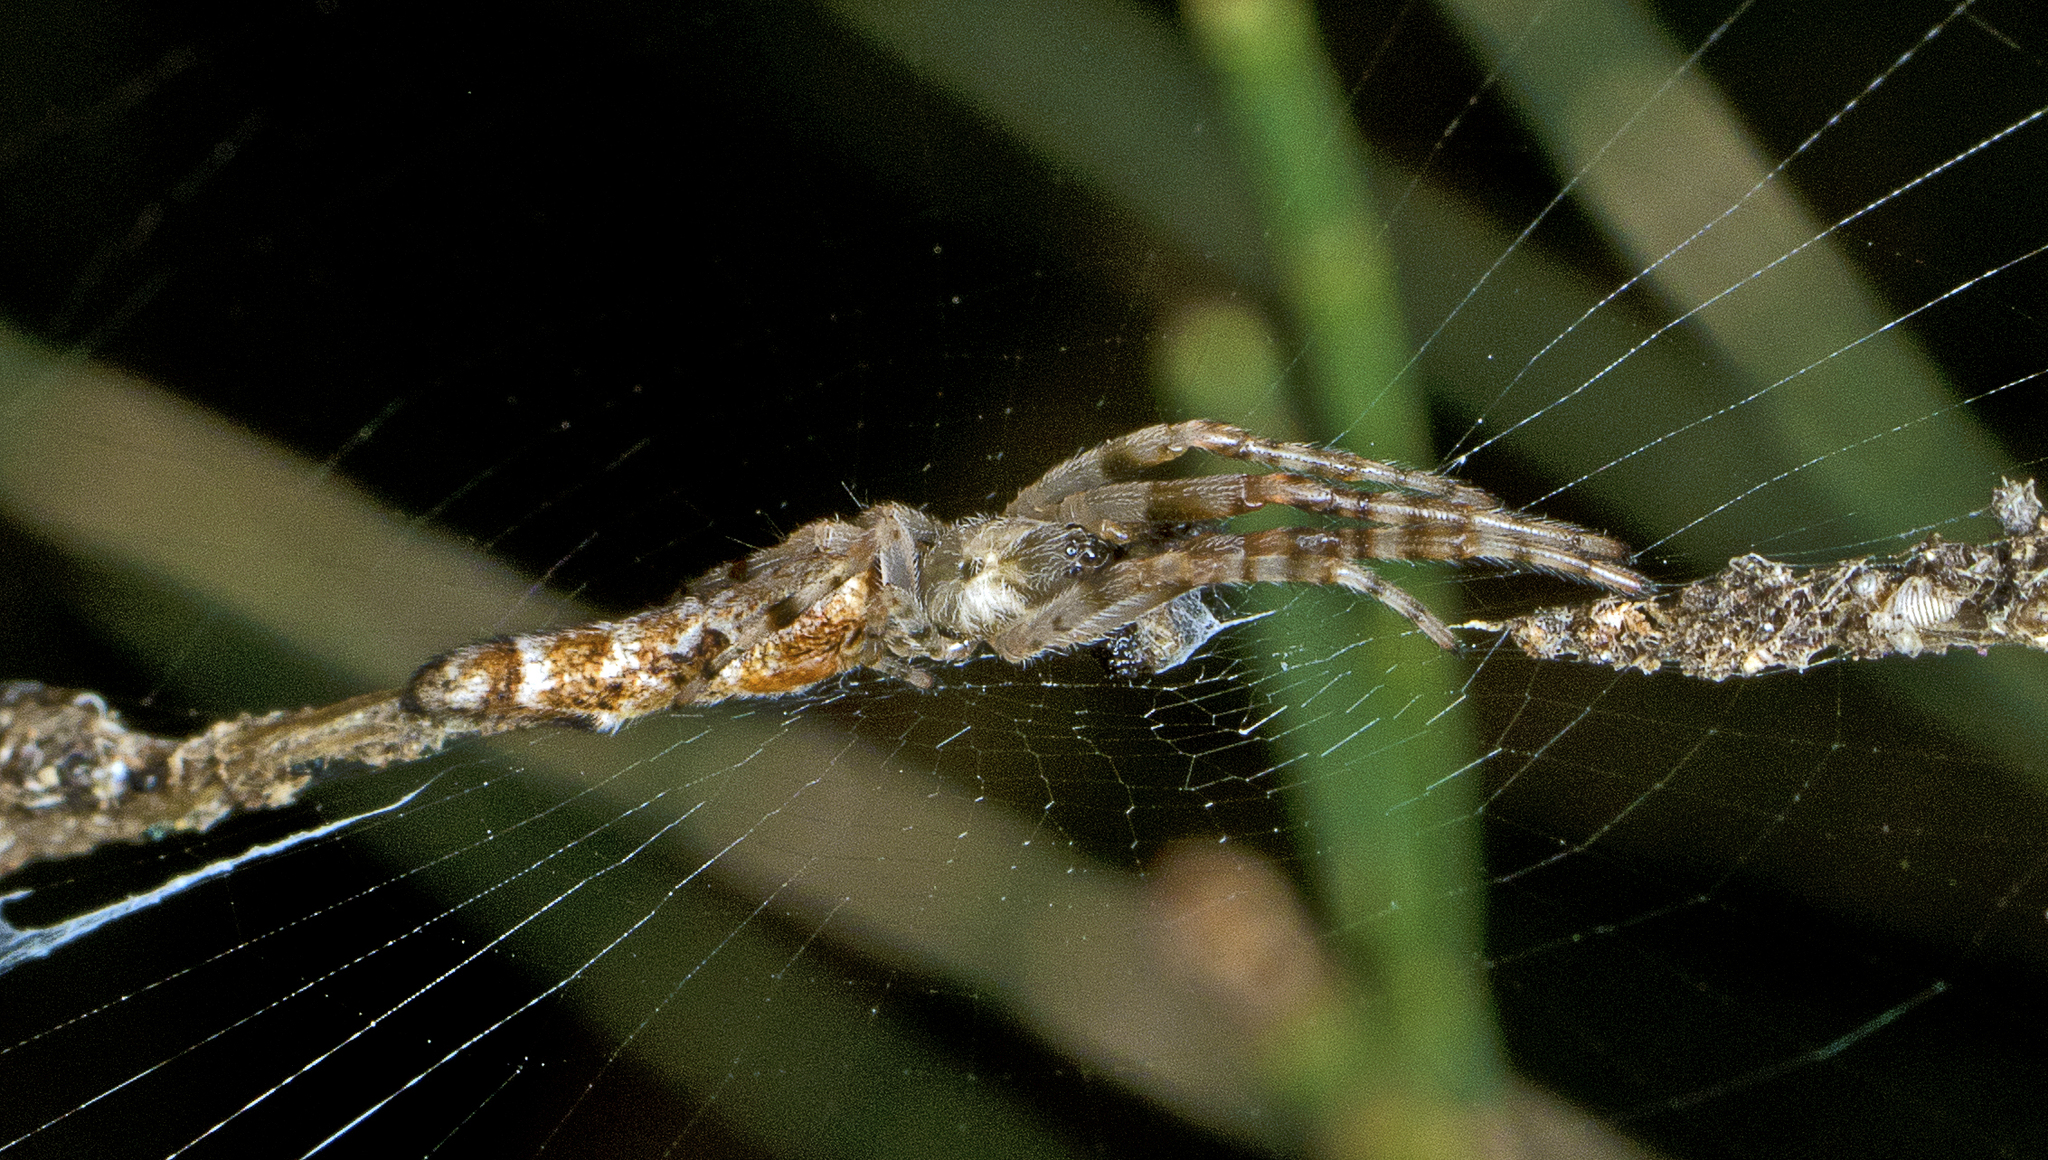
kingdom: Animalia
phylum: Arthropoda
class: Arachnida
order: Araneae
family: Araneidae
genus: Cyclosa
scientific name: Cyclosa bacilliformis
